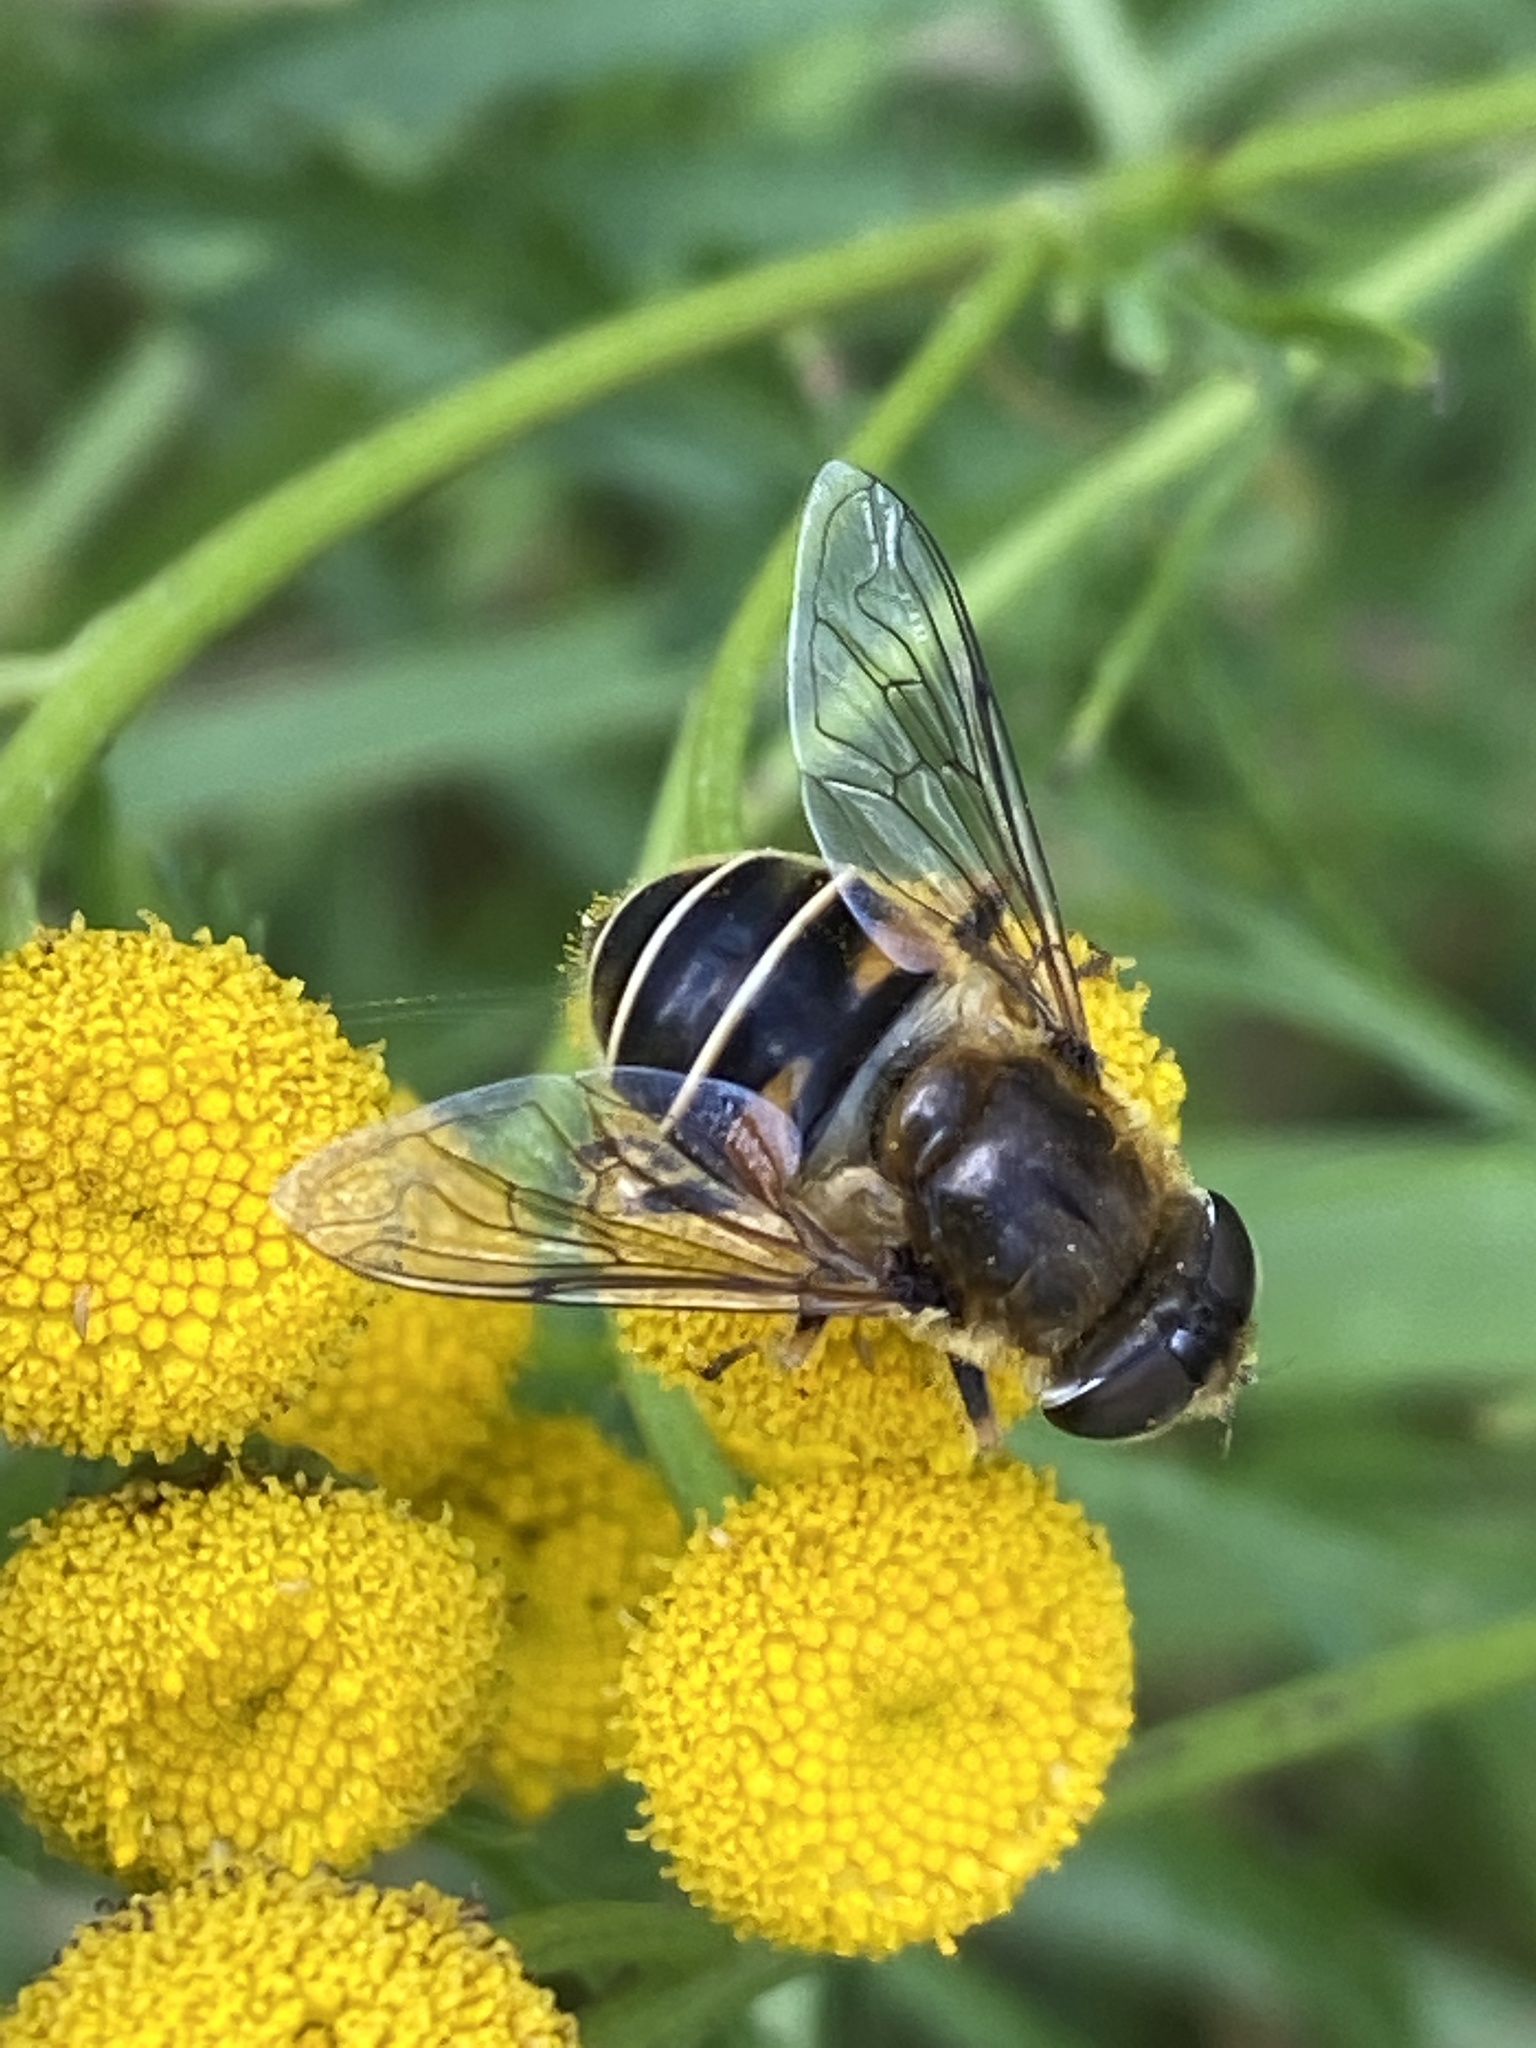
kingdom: Animalia
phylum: Arthropoda
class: Insecta
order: Diptera
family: Syrphidae
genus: Eristalis
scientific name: Eristalis nemorum
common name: Orange-spined drone fly
